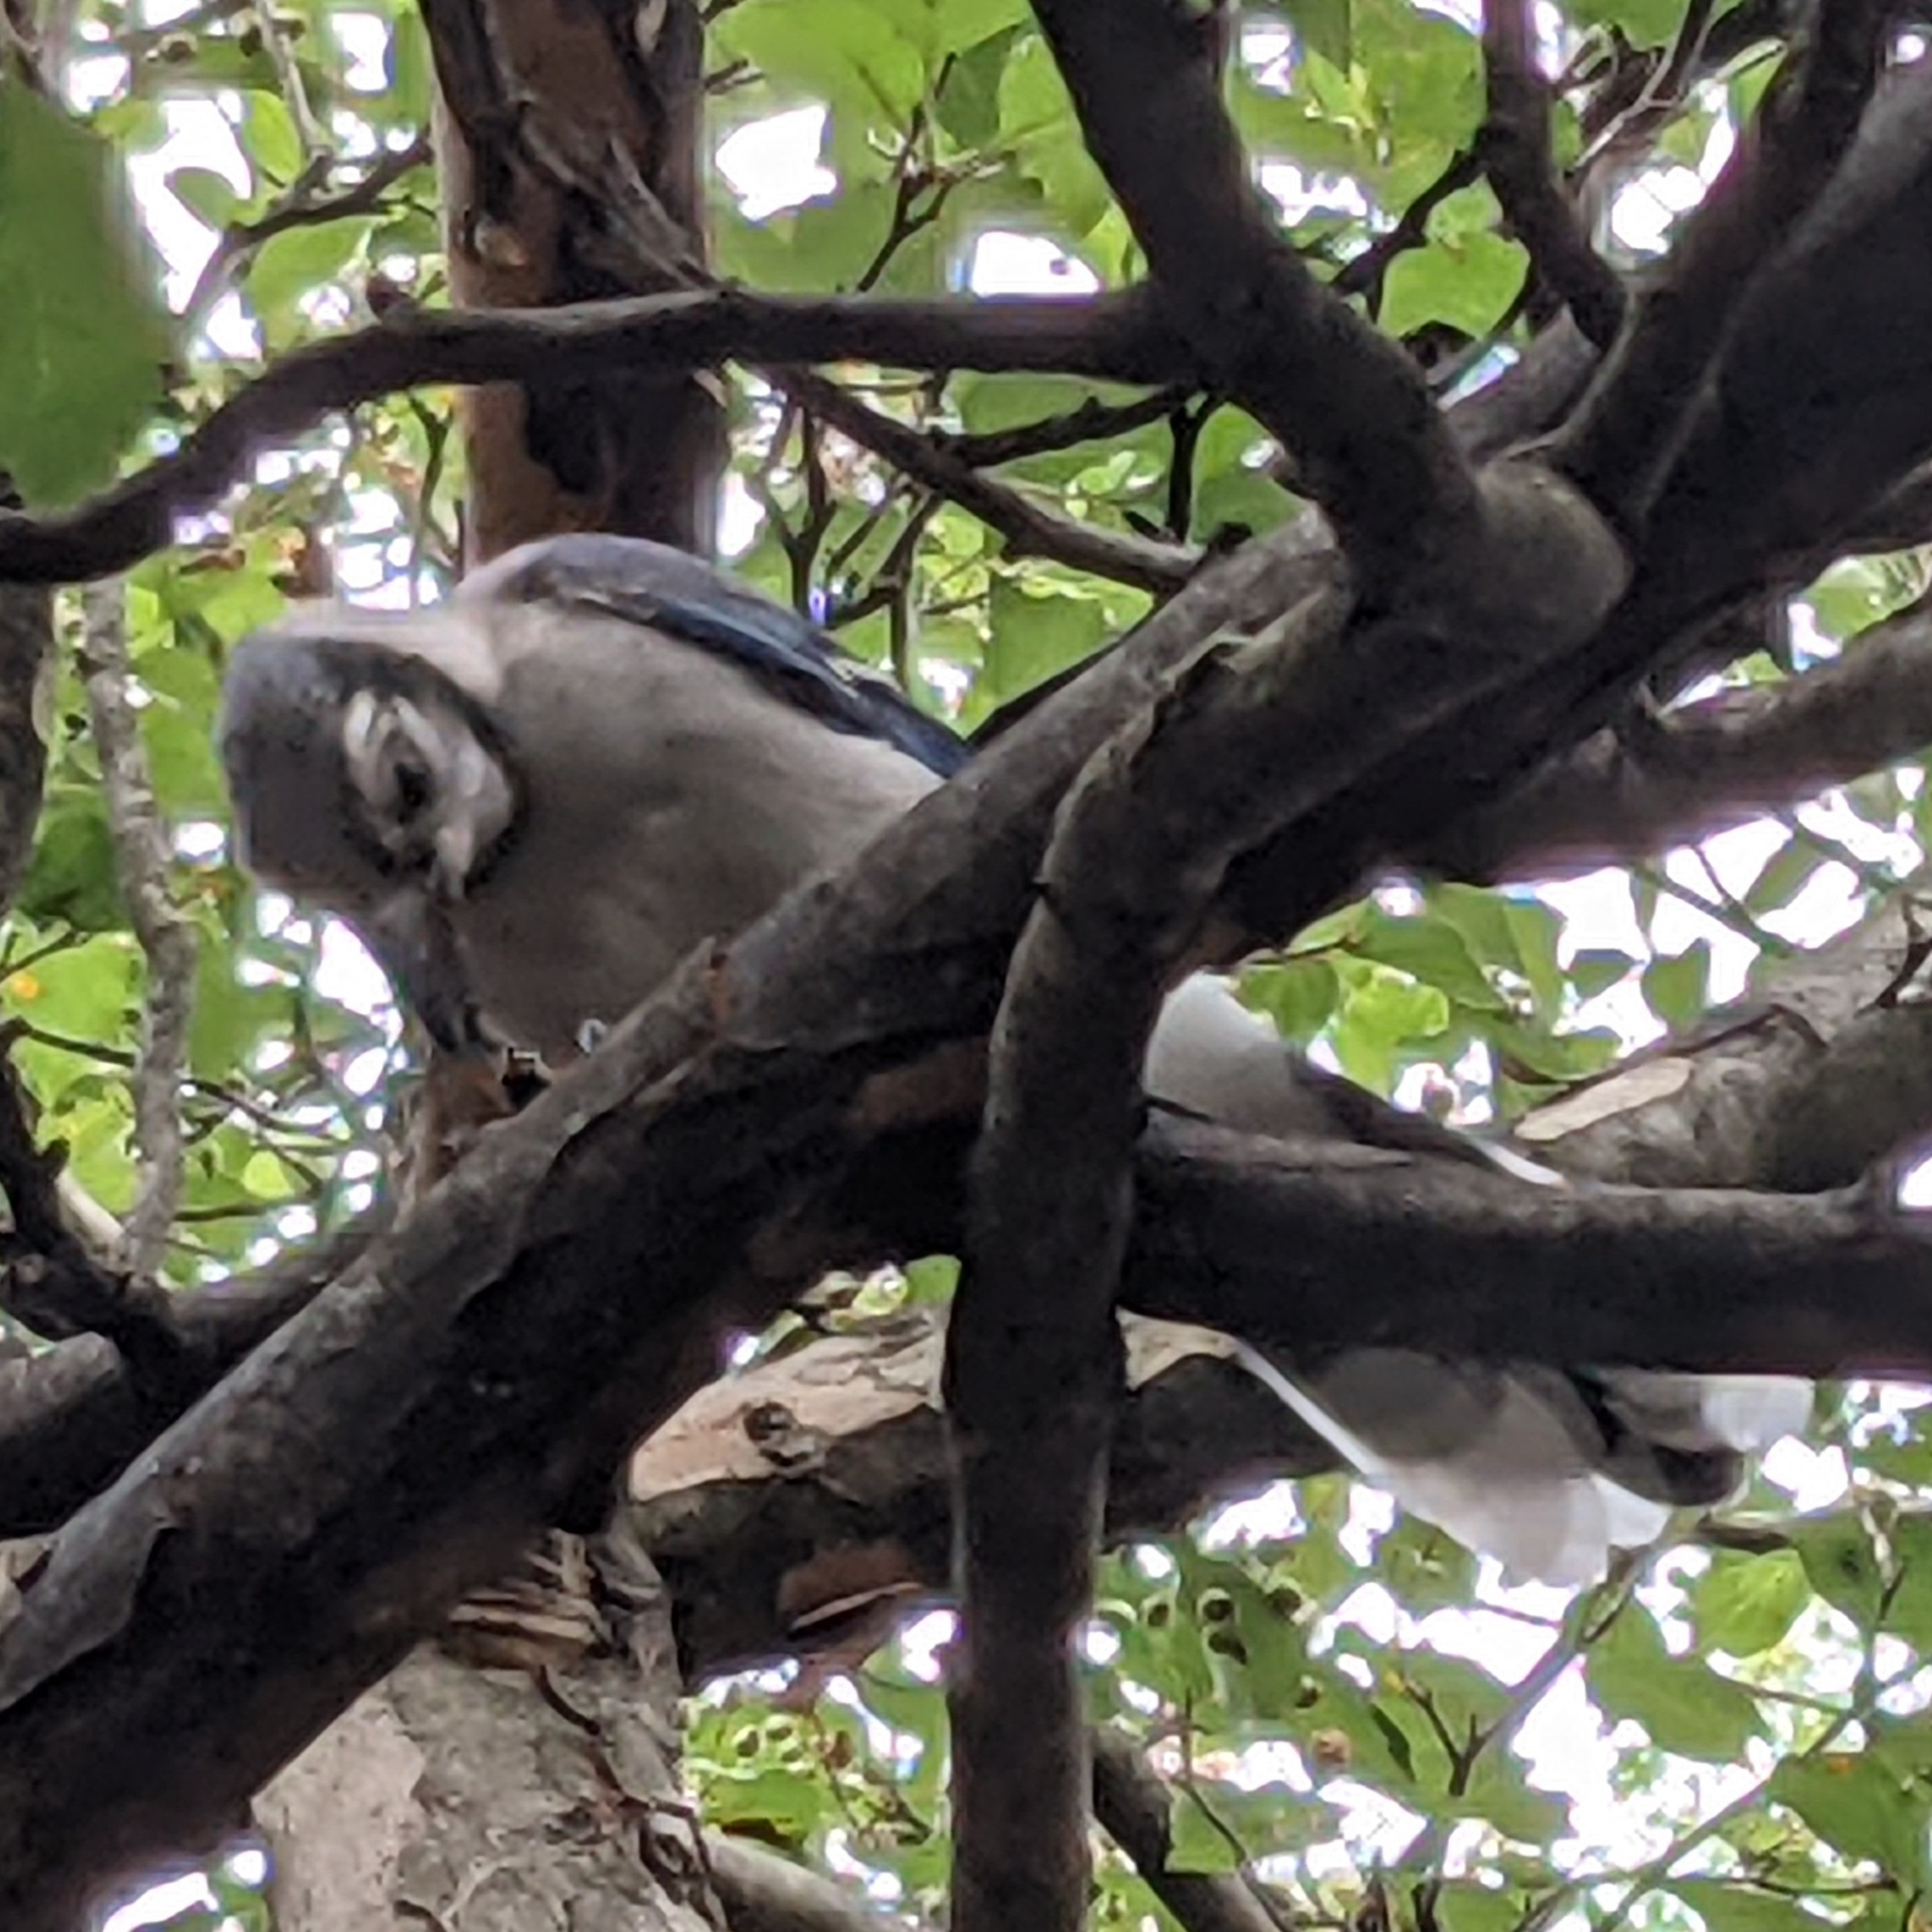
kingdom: Animalia
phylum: Chordata
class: Aves
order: Passeriformes
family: Corvidae
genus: Cyanocitta
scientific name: Cyanocitta cristata
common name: Blue jay
